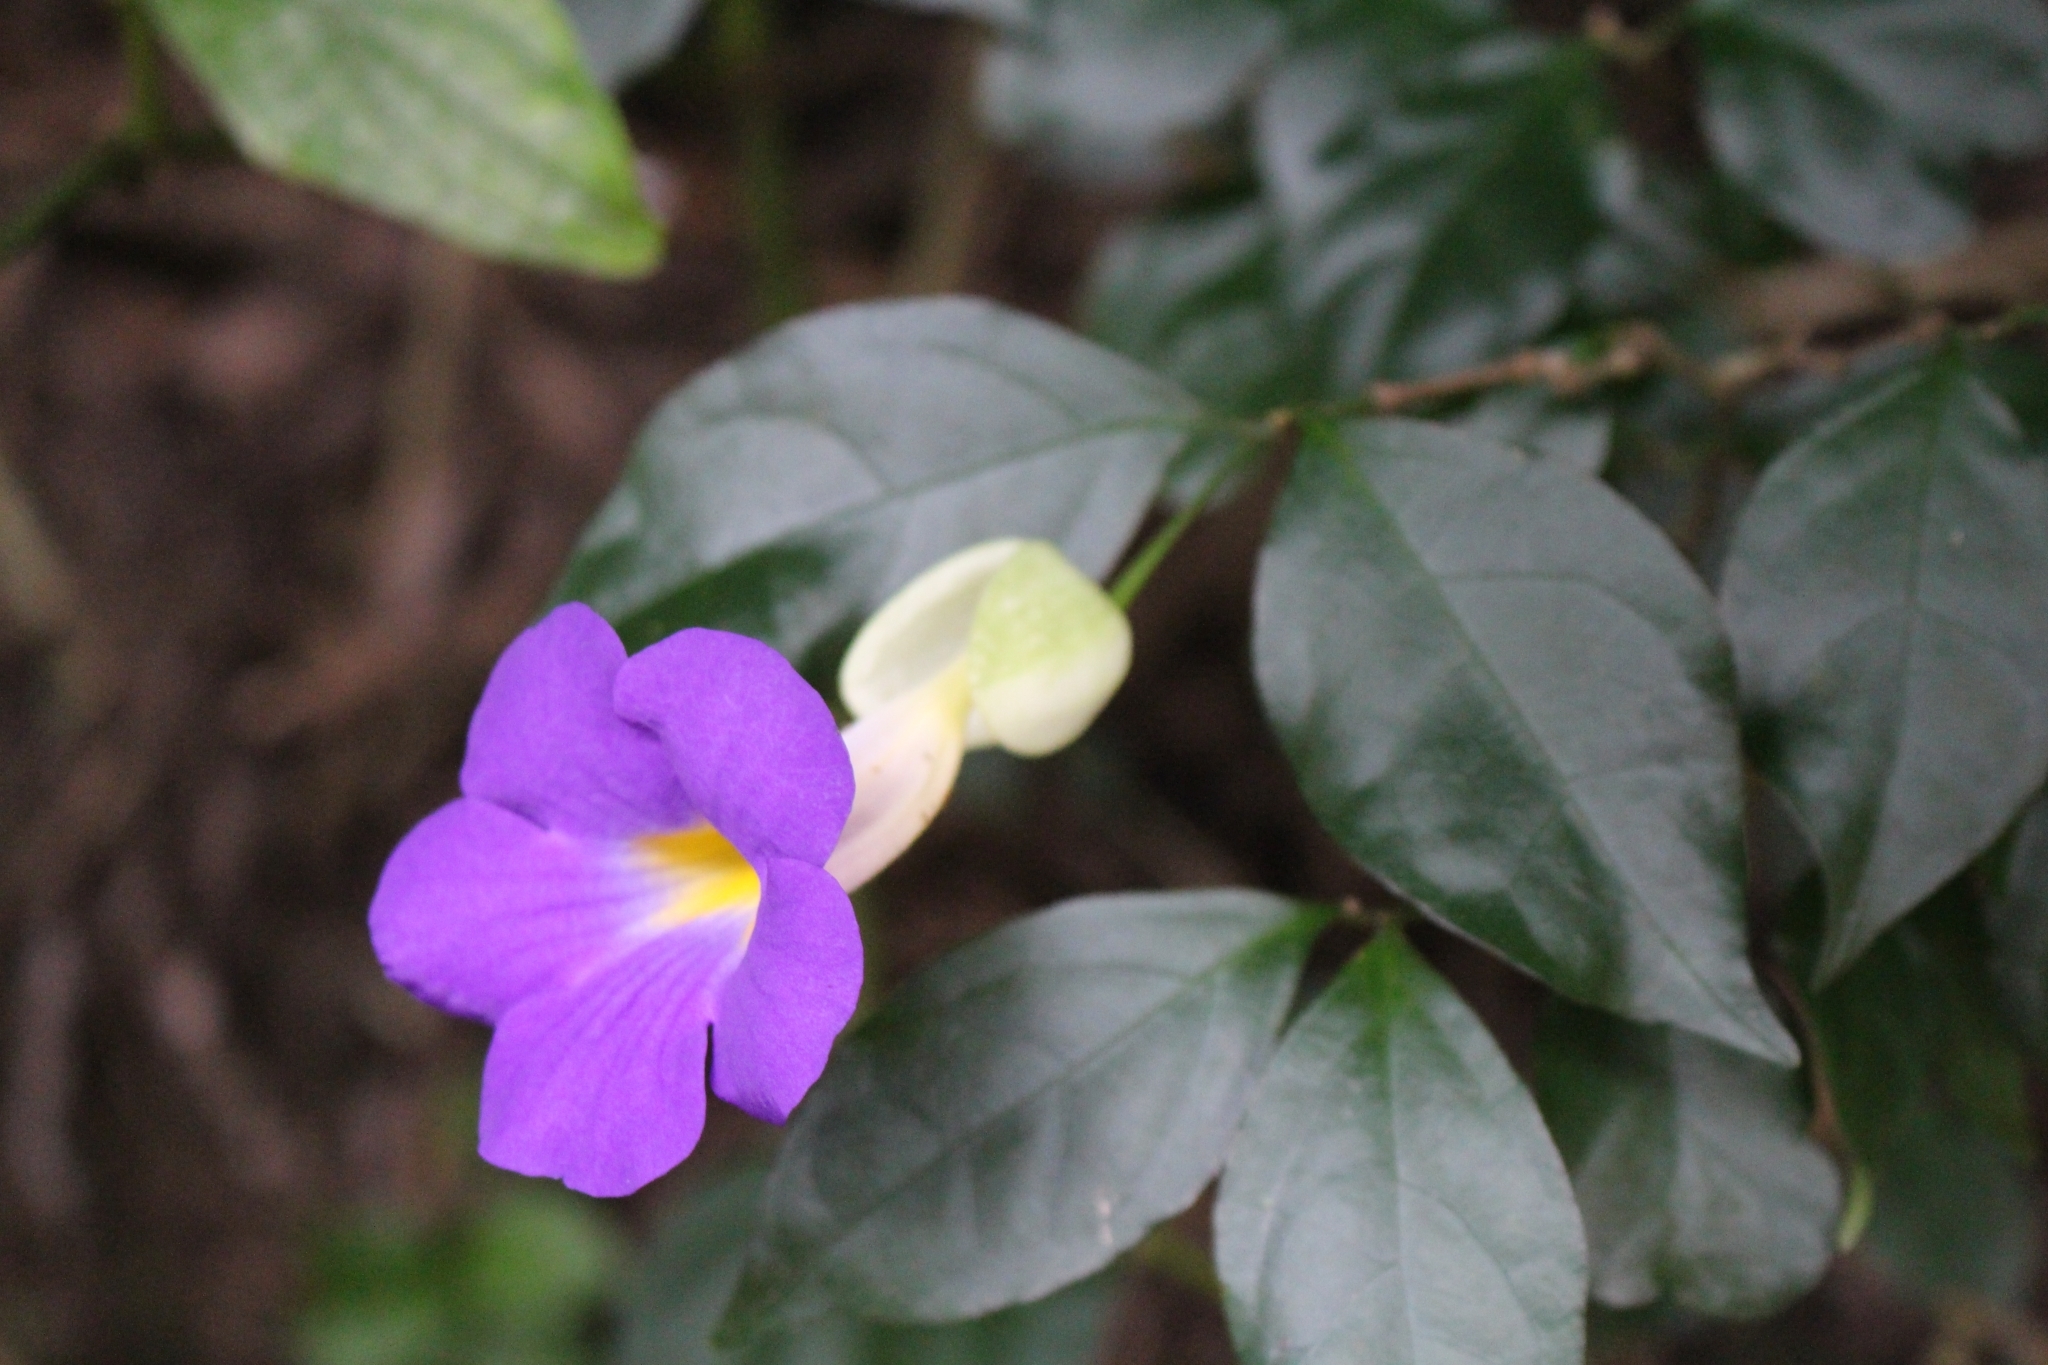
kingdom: Plantae
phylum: Tracheophyta
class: Magnoliopsida
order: Lamiales
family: Acanthaceae
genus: Thunbergia
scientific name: Thunbergia erecta
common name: Bush clockvine
